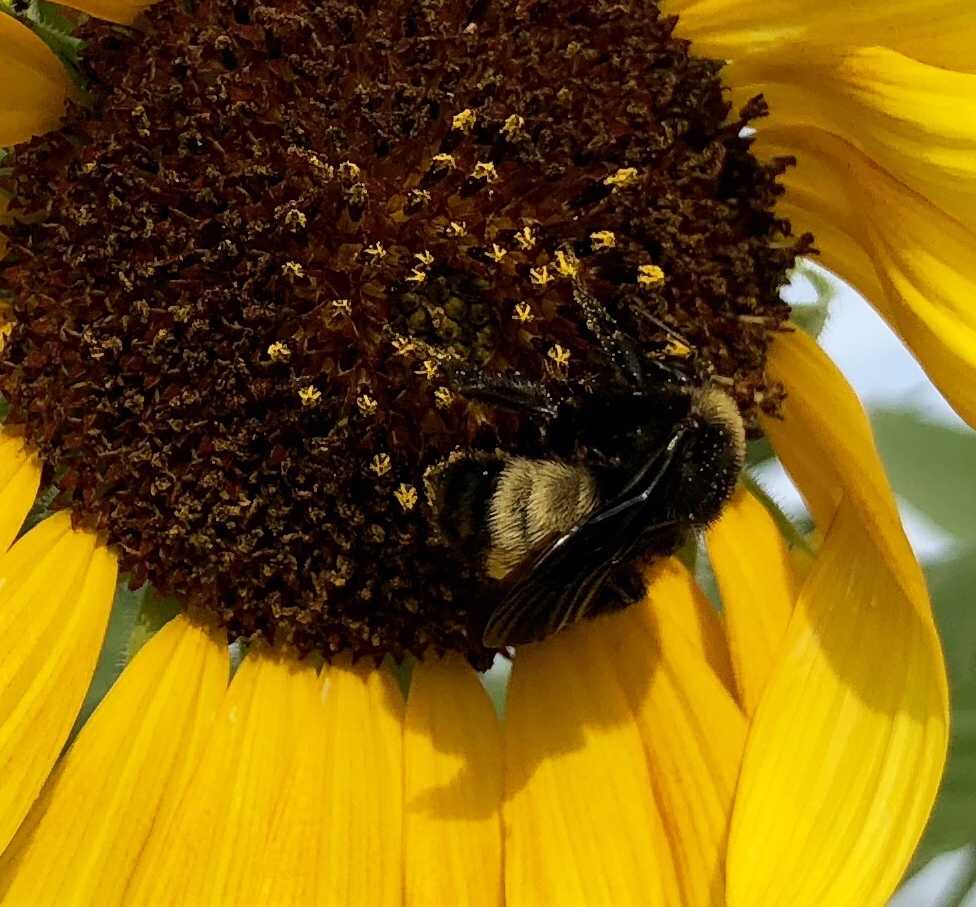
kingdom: Animalia
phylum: Arthropoda
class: Insecta
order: Hymenoptera
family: Apidae
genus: Bombus
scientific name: Bombus pensylvanicus
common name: Bumble bee
